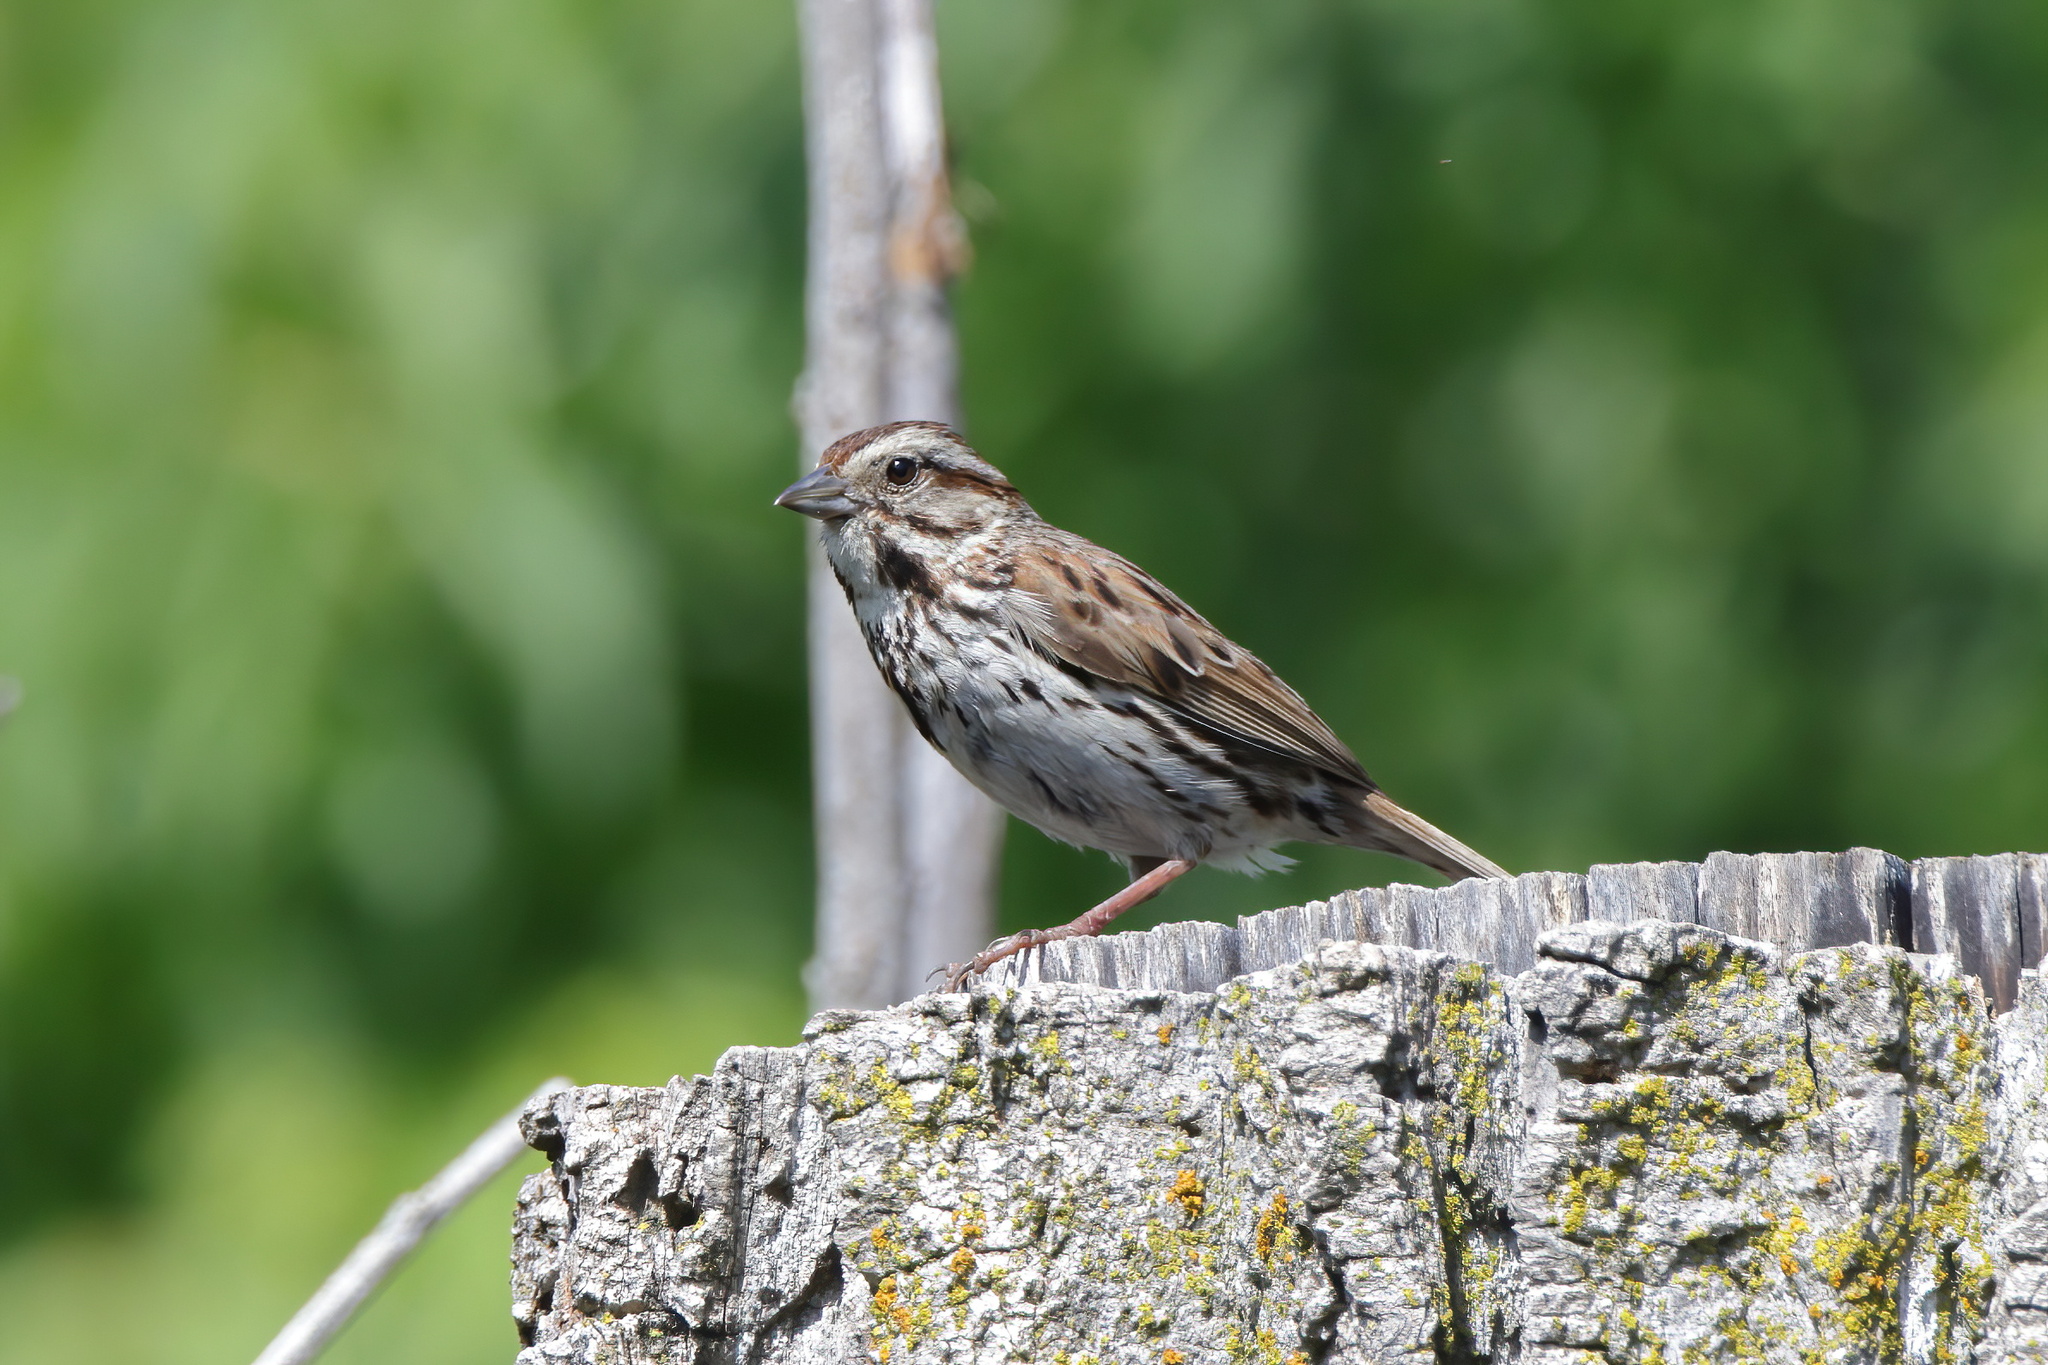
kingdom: Animalia
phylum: Chordata
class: Aves
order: Passeriformes
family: Passerellidae
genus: Melospiza
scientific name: Melospiza melodia
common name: Song sparrow
